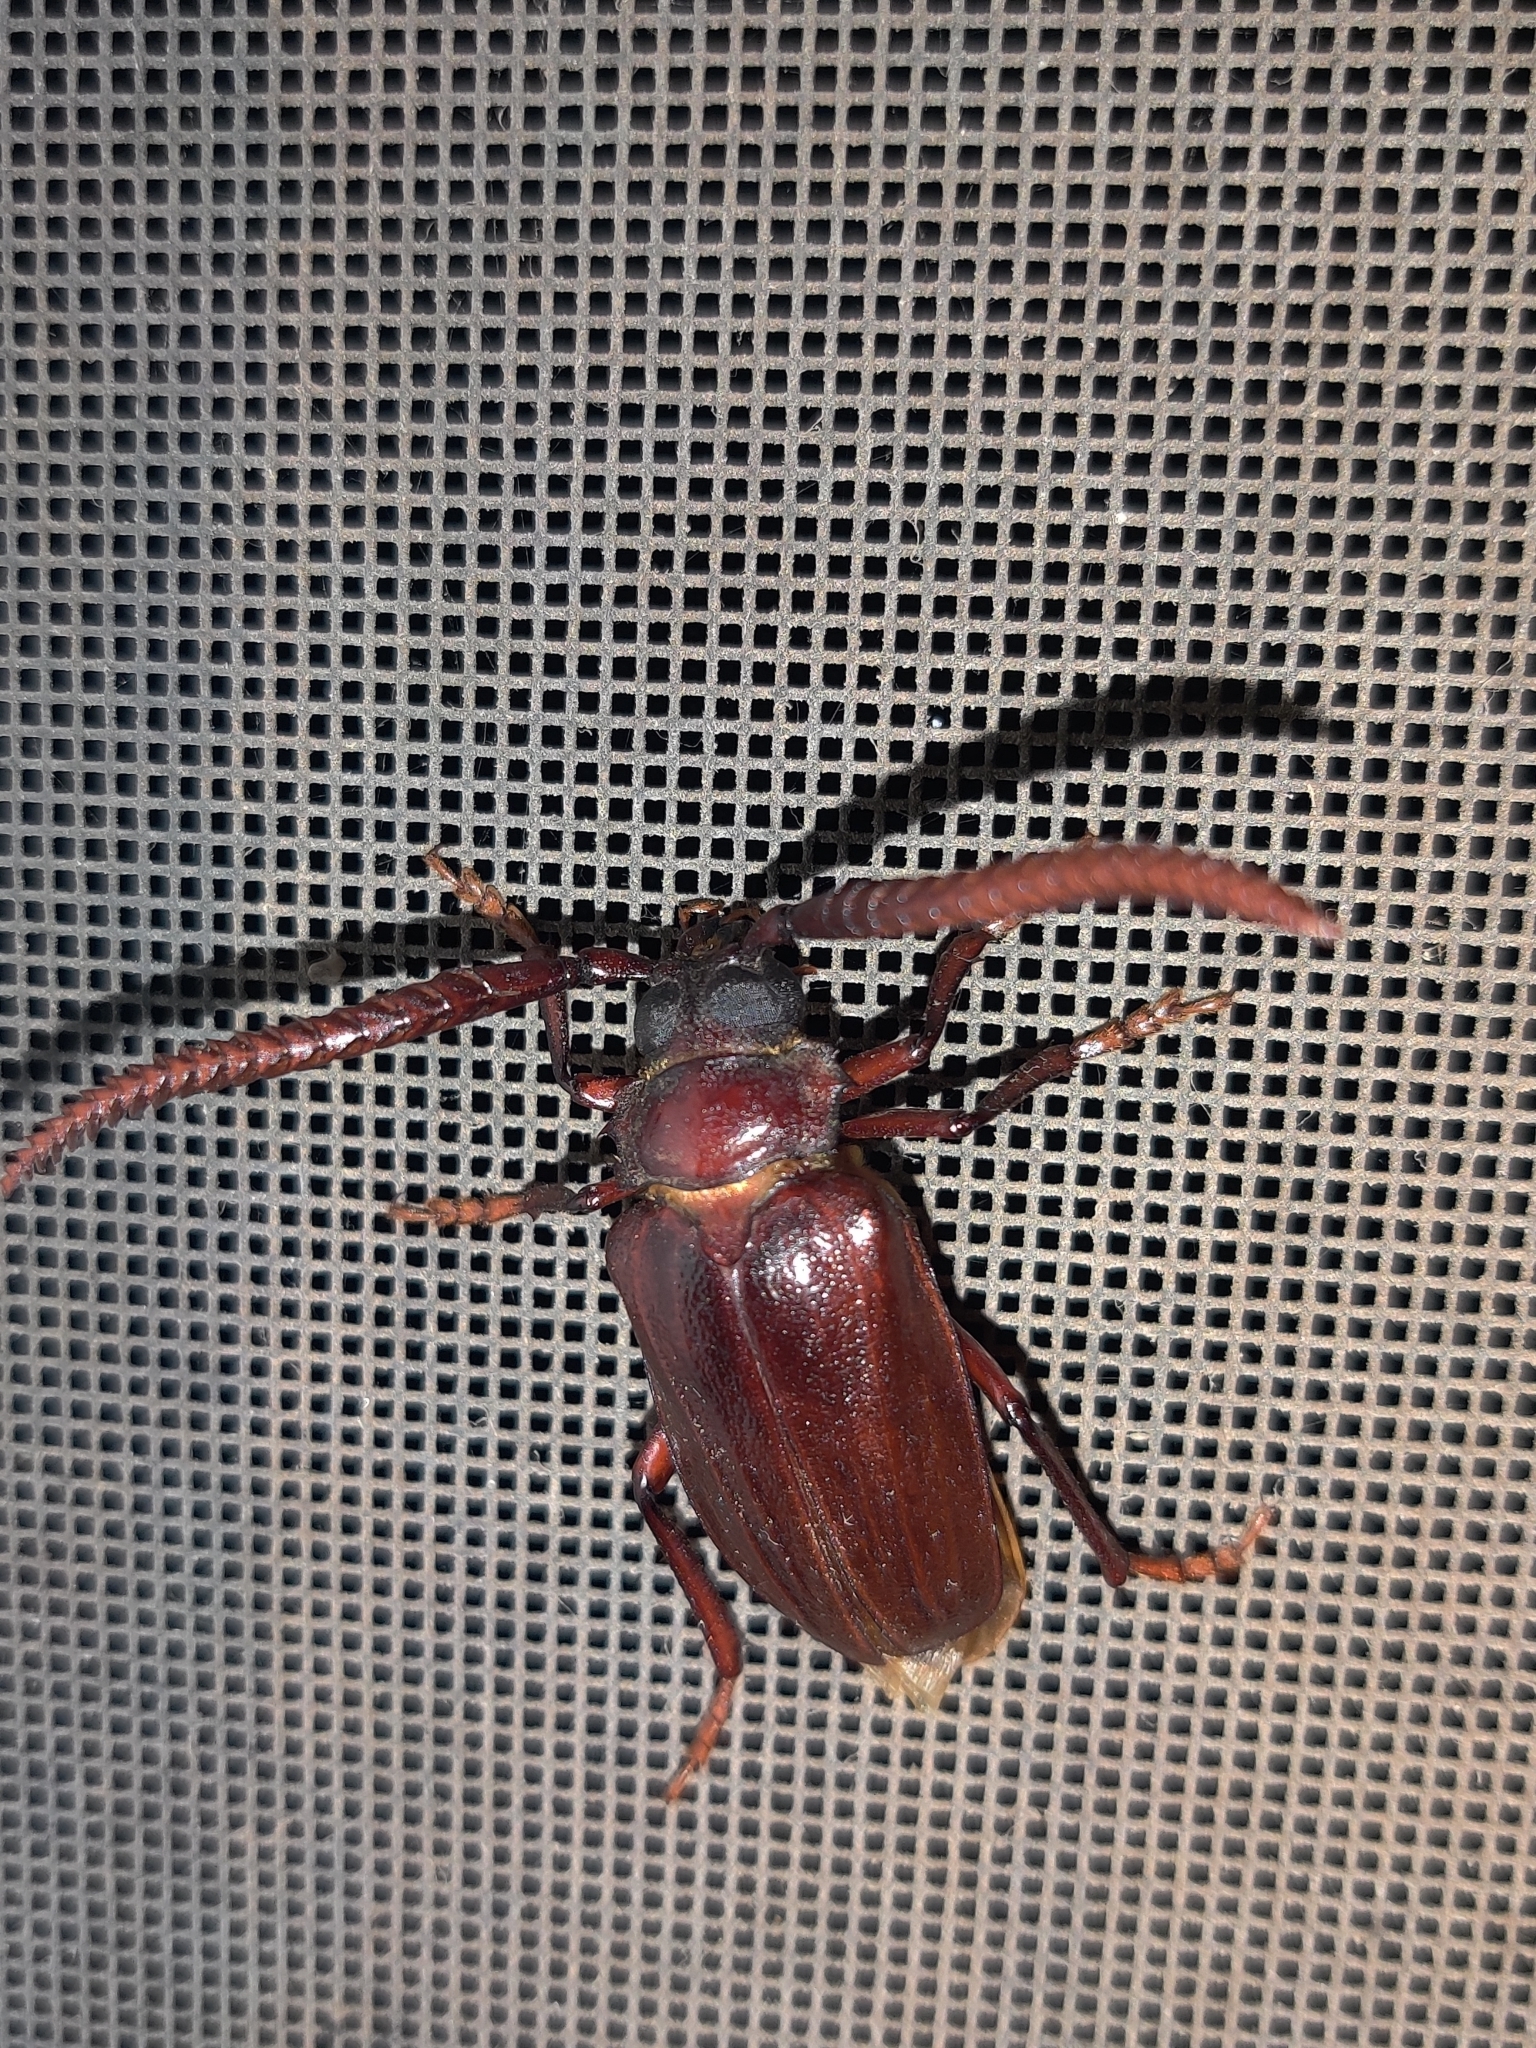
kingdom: Animalia
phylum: Arthropoda
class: Insecta
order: Coleoptera
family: Cerambycidae
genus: Prionus
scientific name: Prionus imbricornis
